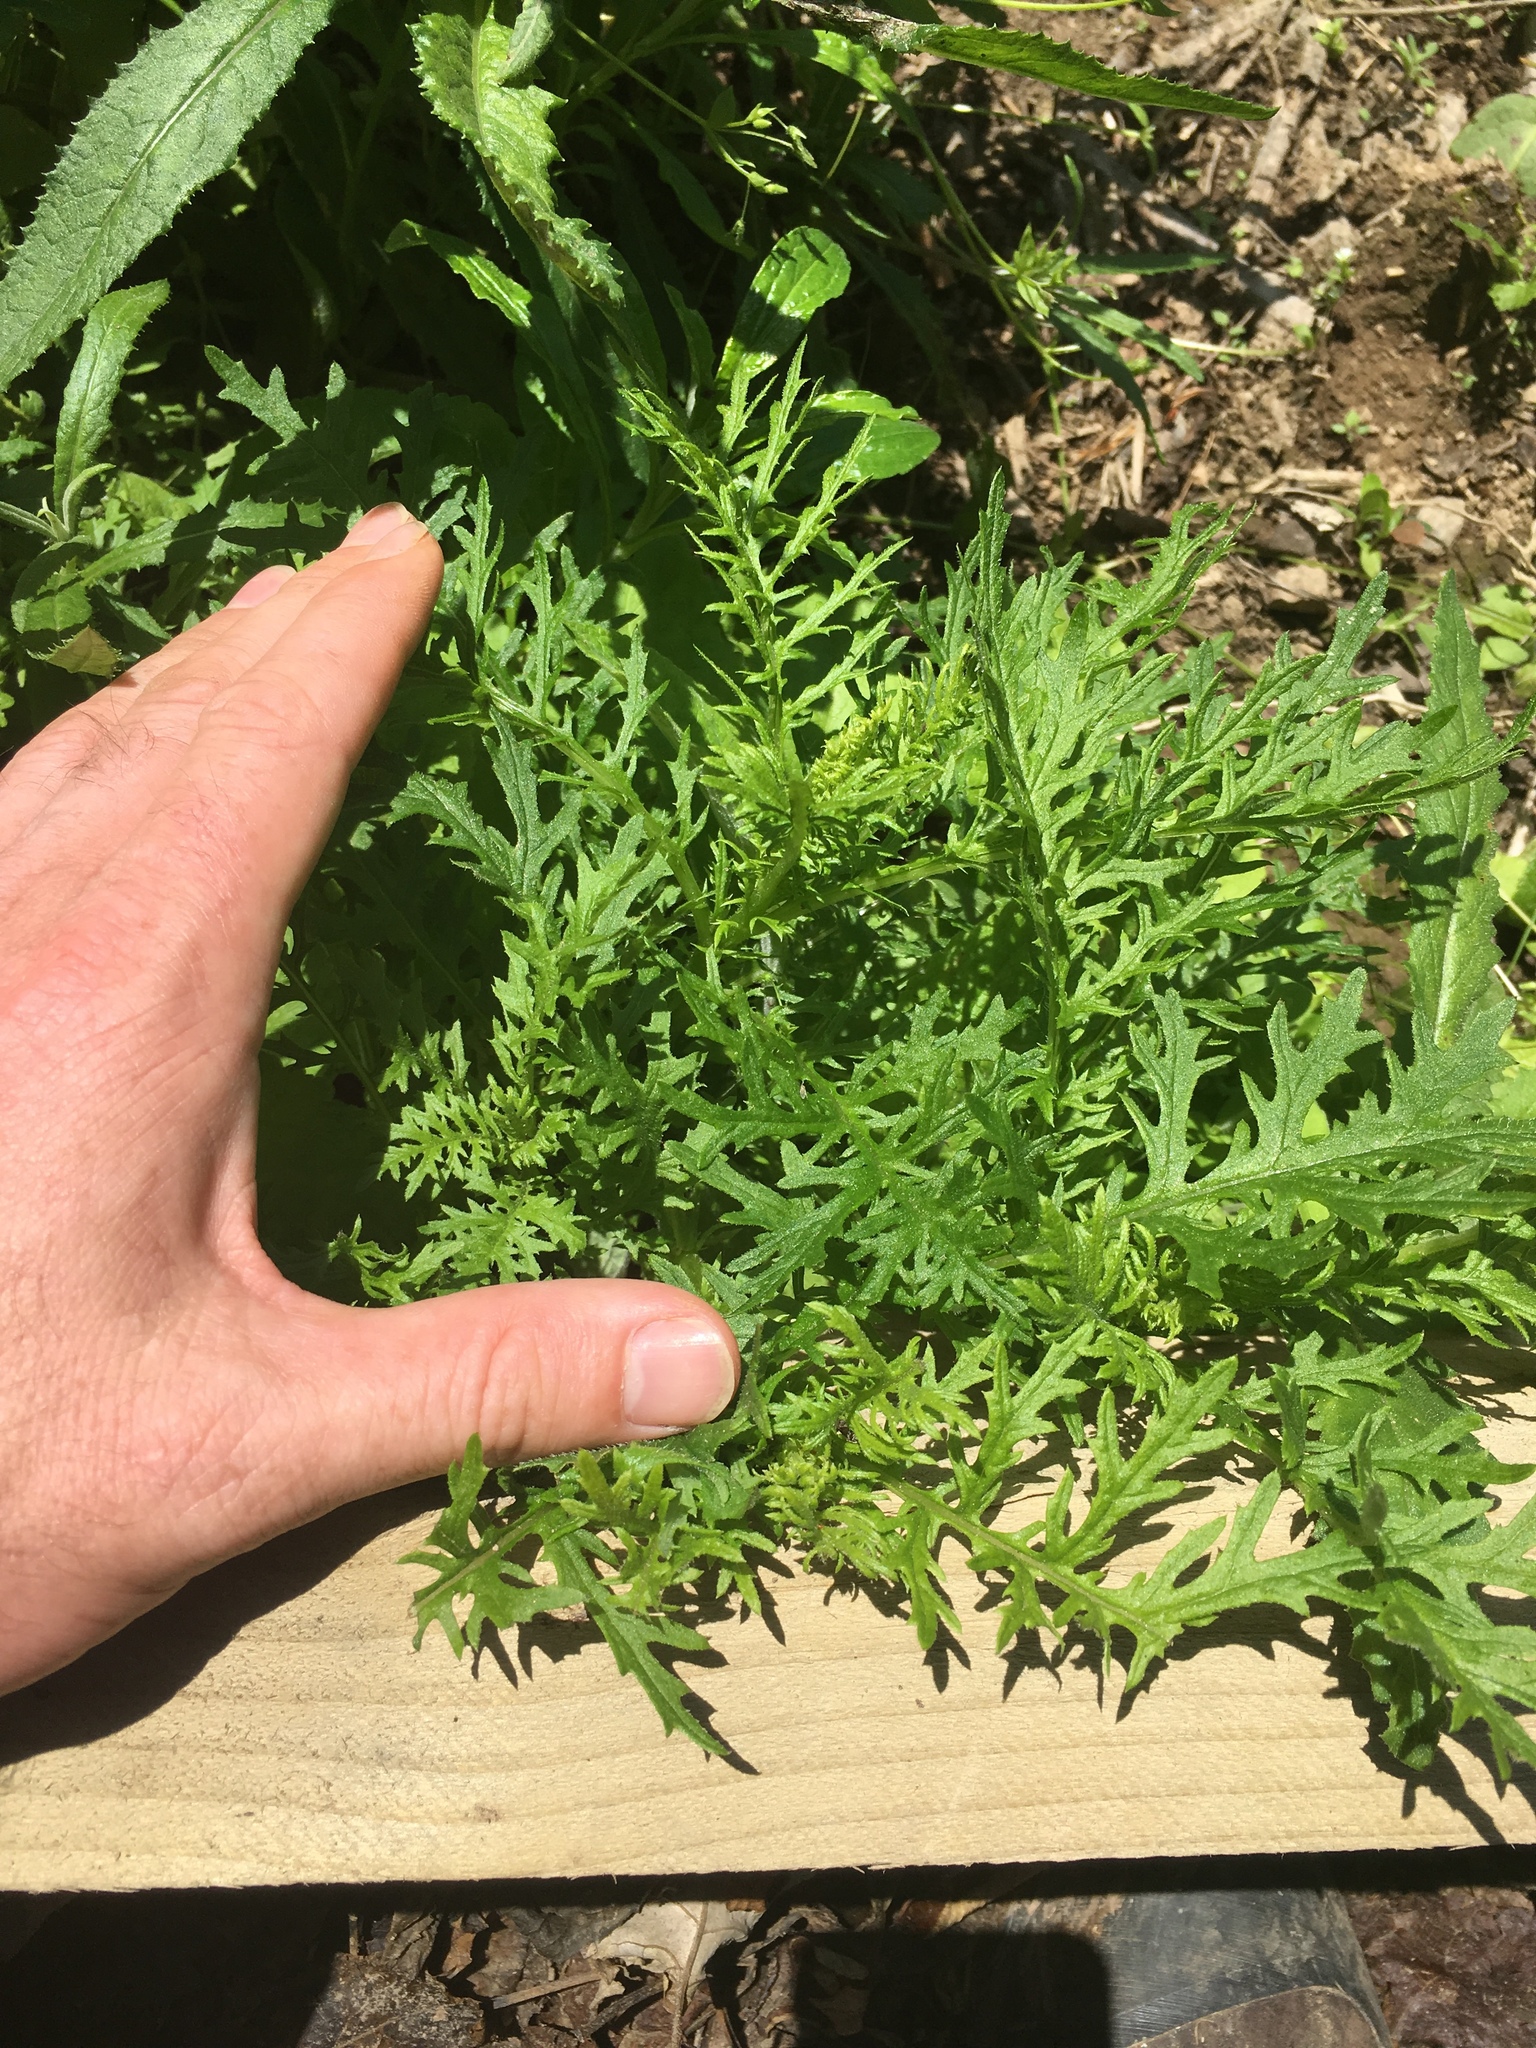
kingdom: Plantae
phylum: Tracheophyta
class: Magnoliopsida
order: Asterales
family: Asteraceae
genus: Senecio
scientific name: Senecio bipinnatisectus
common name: Australian fireweed
